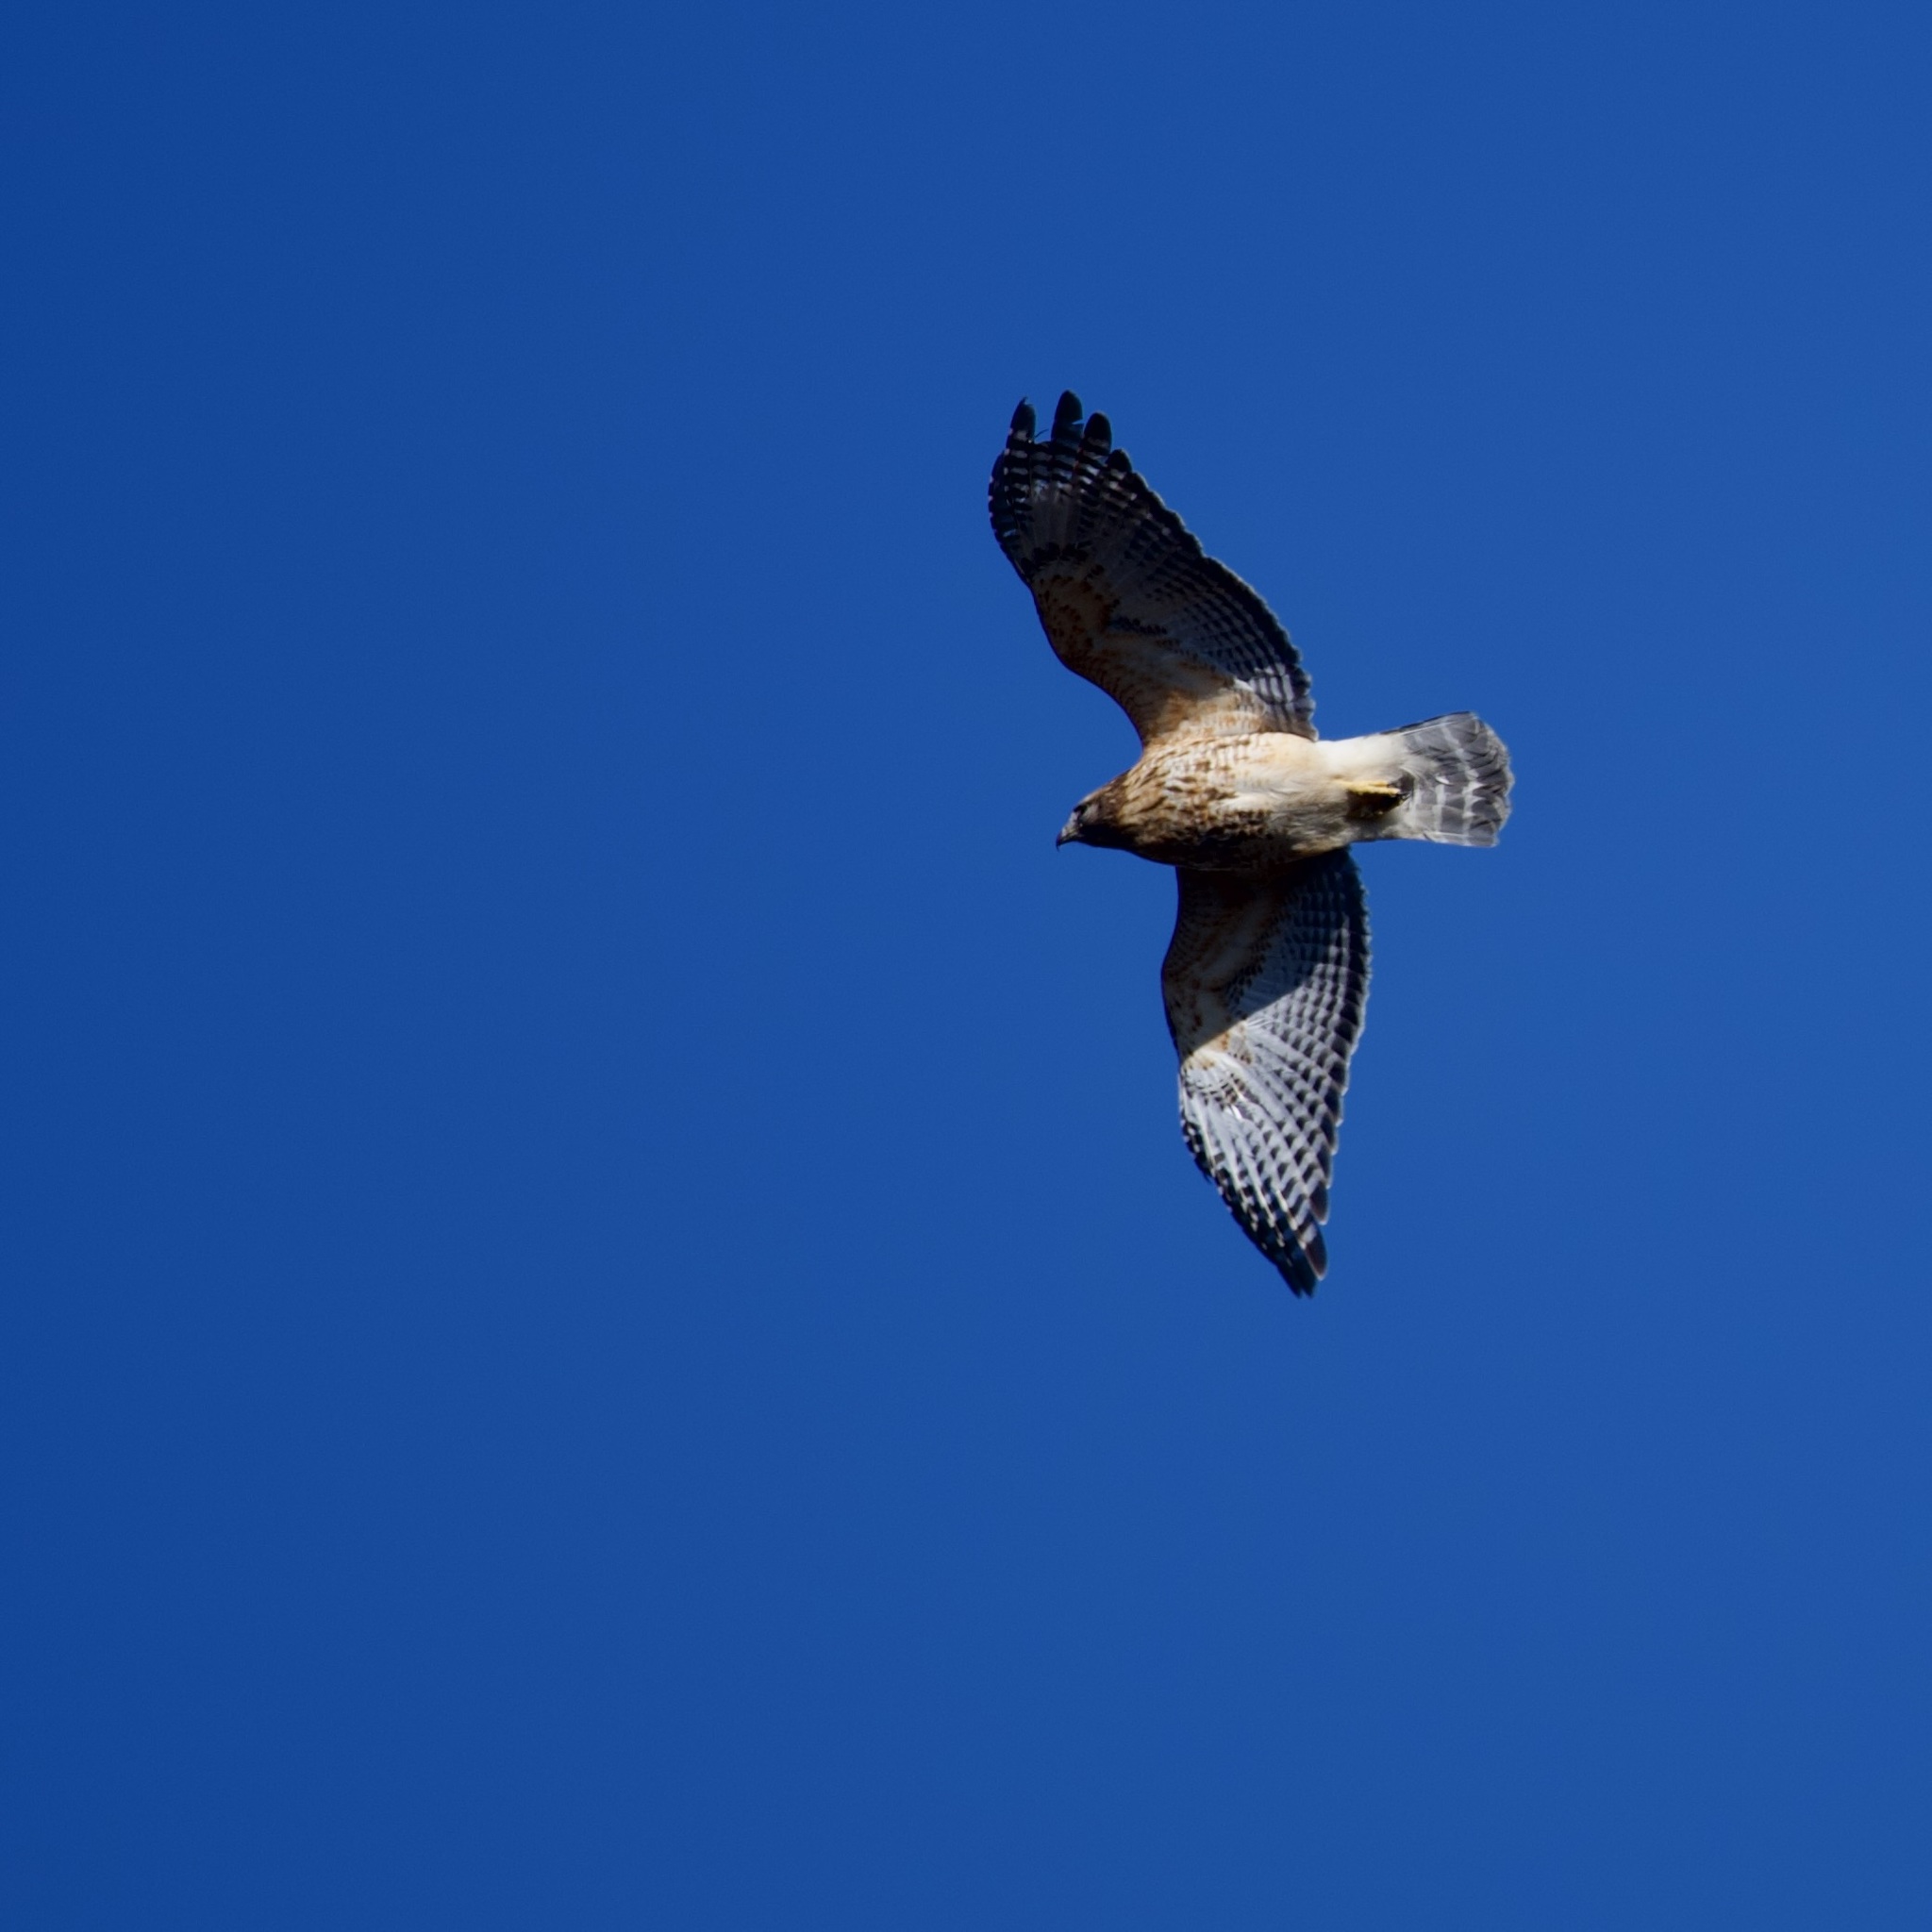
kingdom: Animalia
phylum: Chordata
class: Aves
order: Accipitriformes
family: Accipitridae
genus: Buteo
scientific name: Buteo lineatus
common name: Red-shouldered hawk
